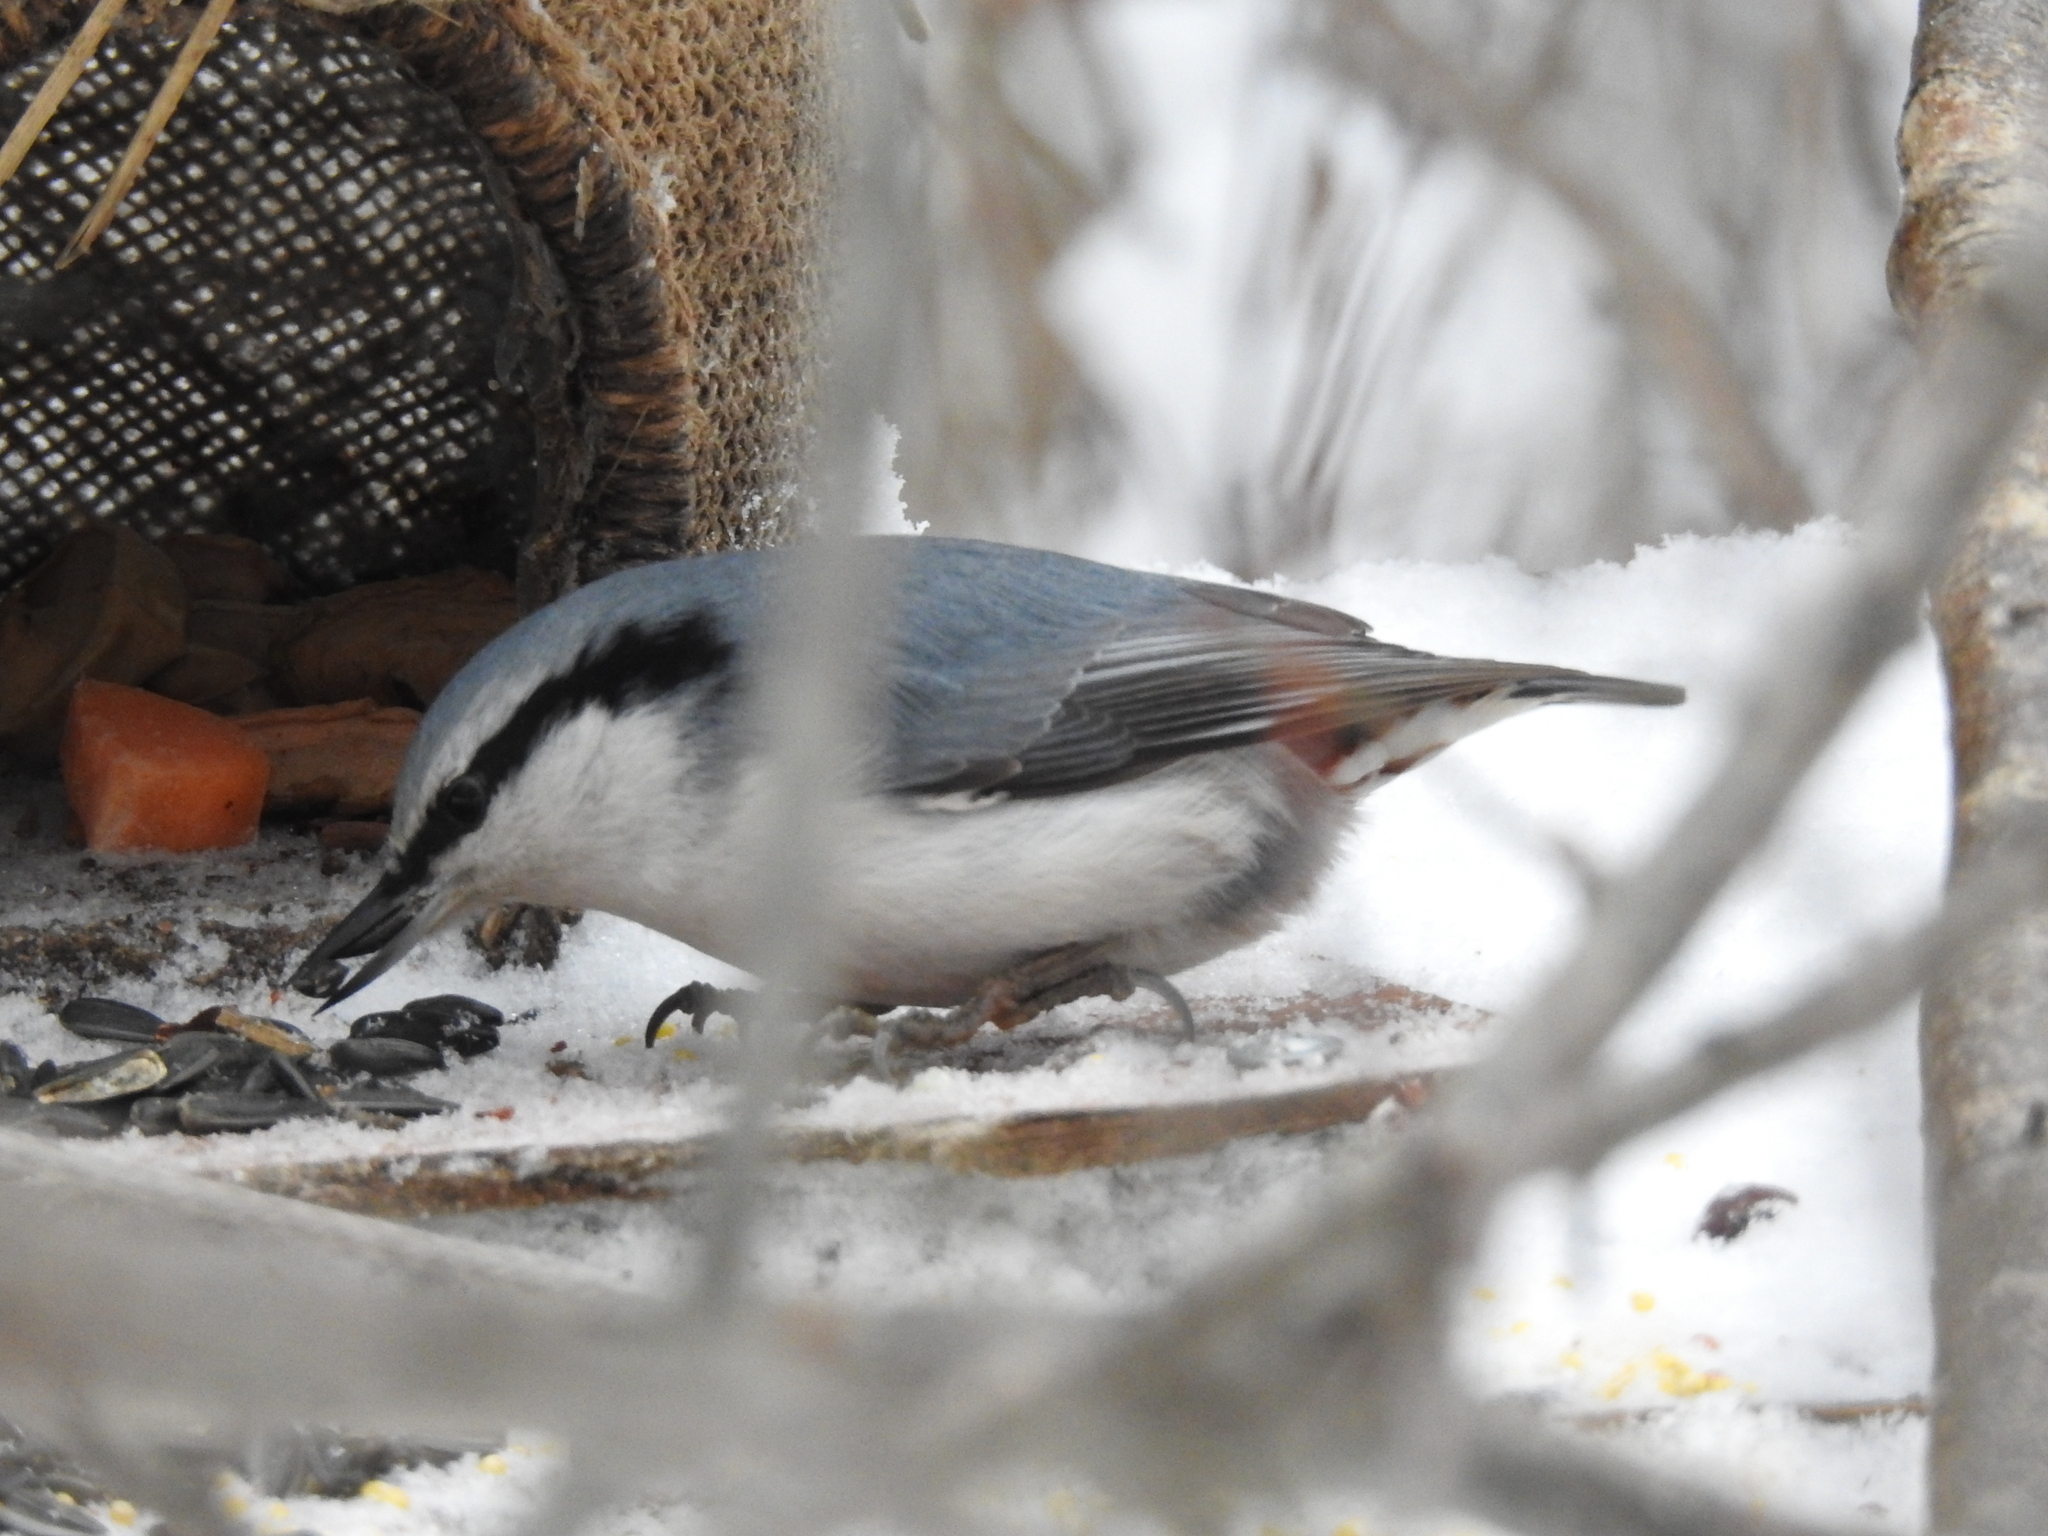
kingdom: Animalia
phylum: Chordata
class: Aves
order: Passeriformes
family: Sittidae
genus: Sitta
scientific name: Sitta europaea
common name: Eurasian nuthatch
